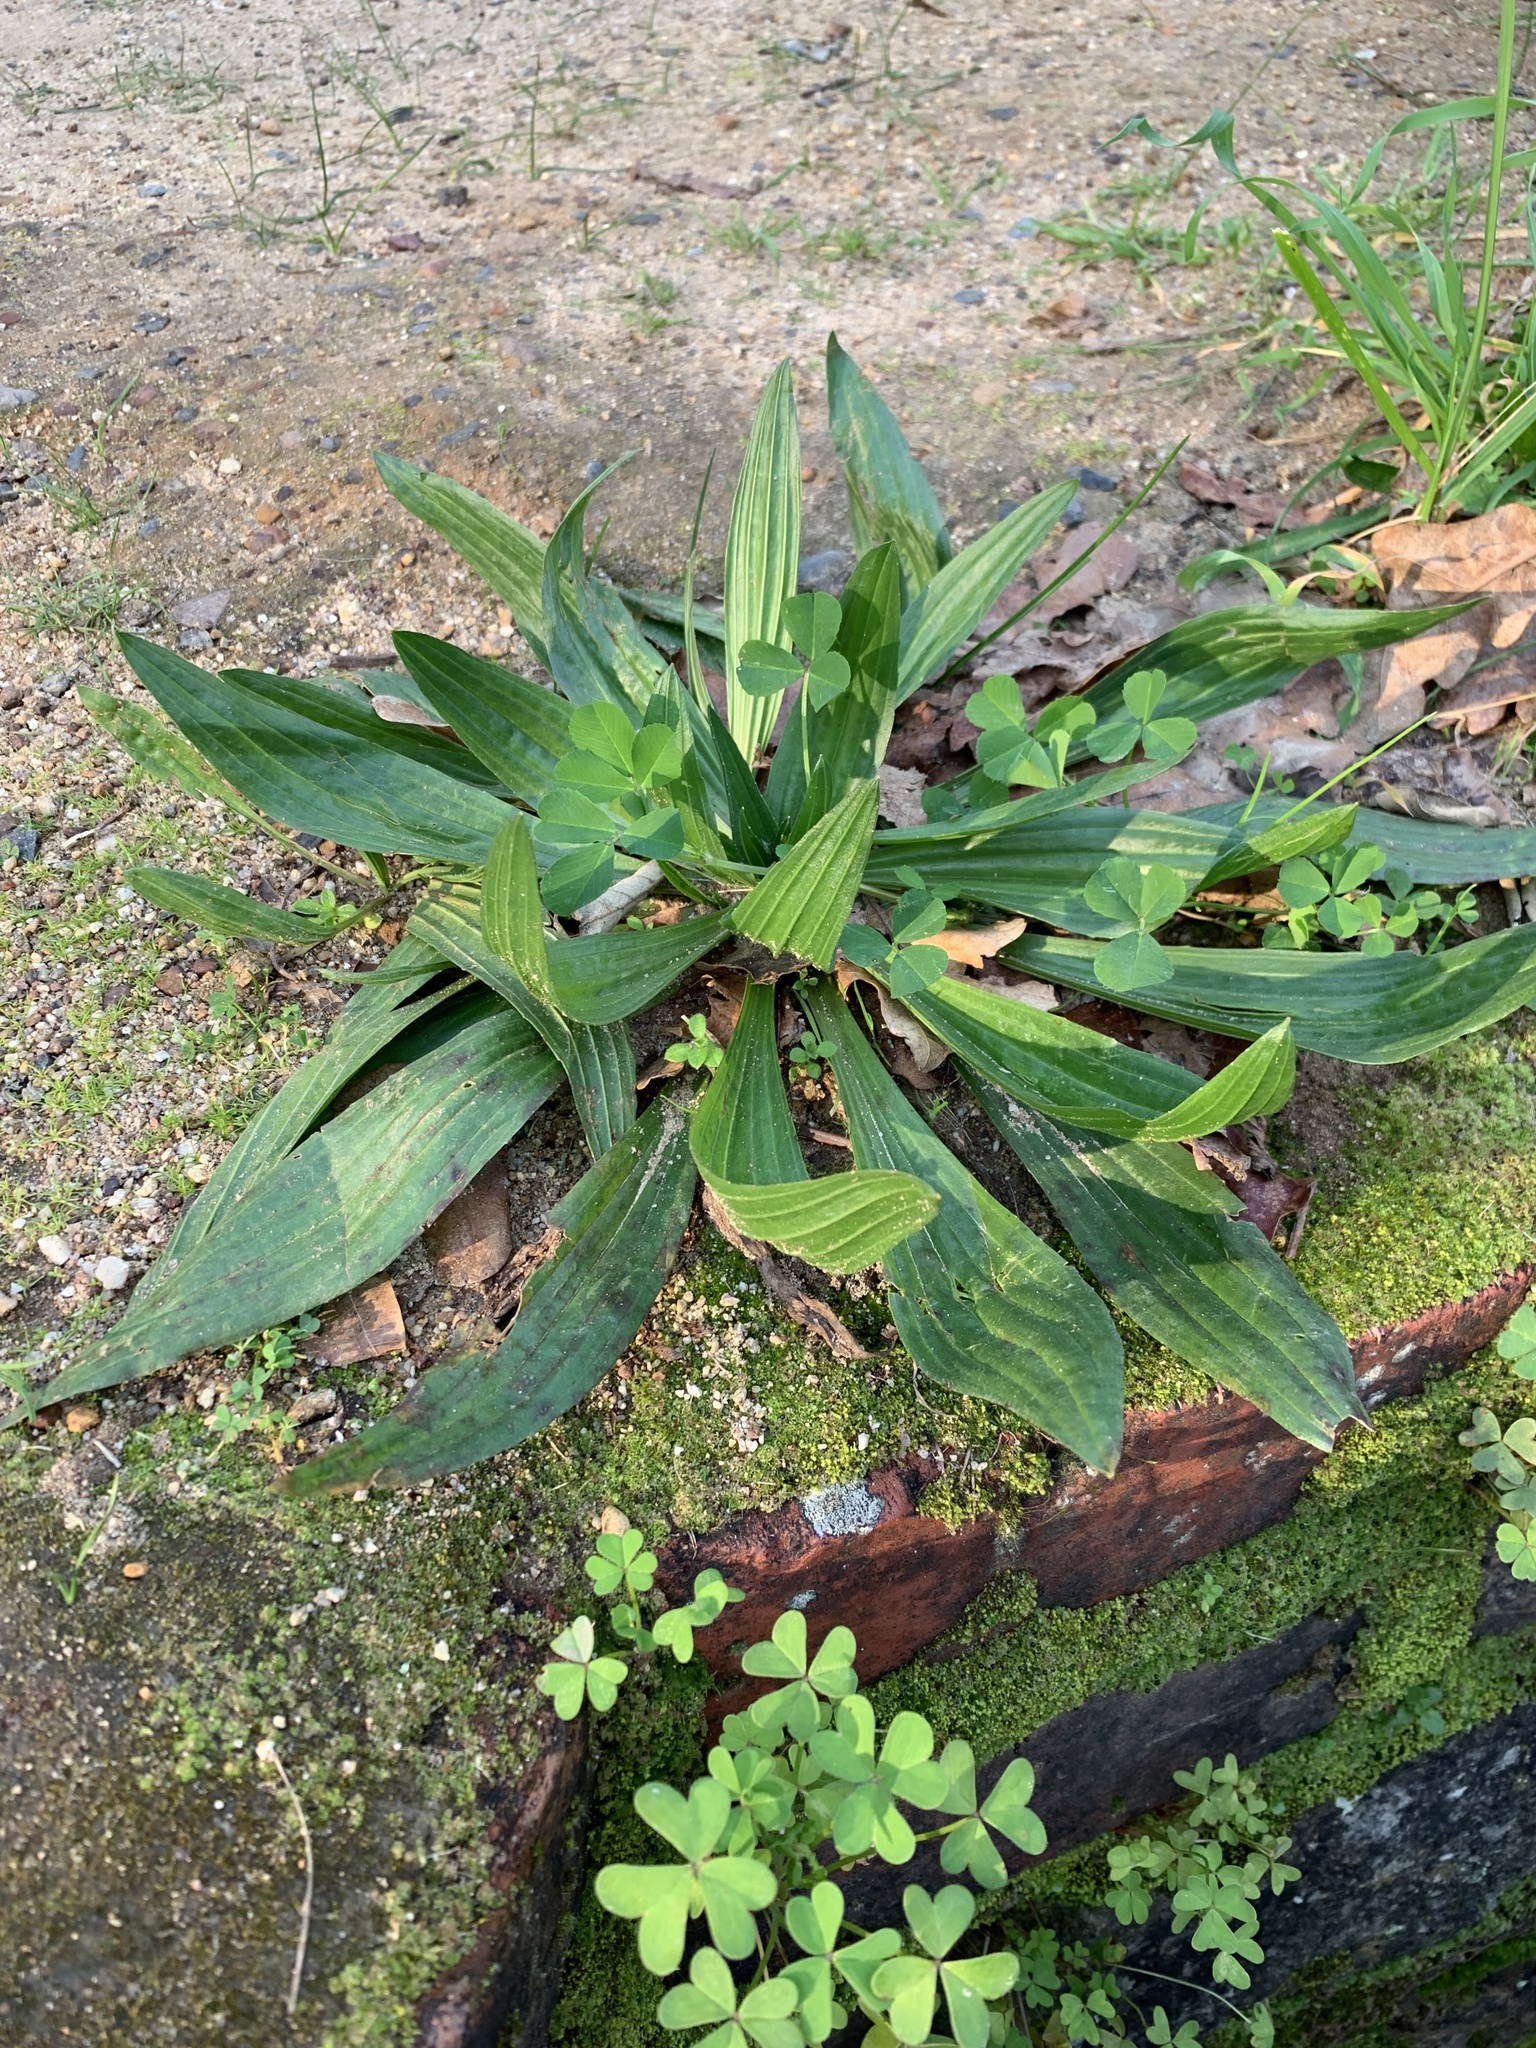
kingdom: Plantae
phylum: Tracheophyta
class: Magnoliopsida
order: Lamiales
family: Plantaginaceae
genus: Plantago
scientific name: Plantago lanceolata
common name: Ribwort plantain
